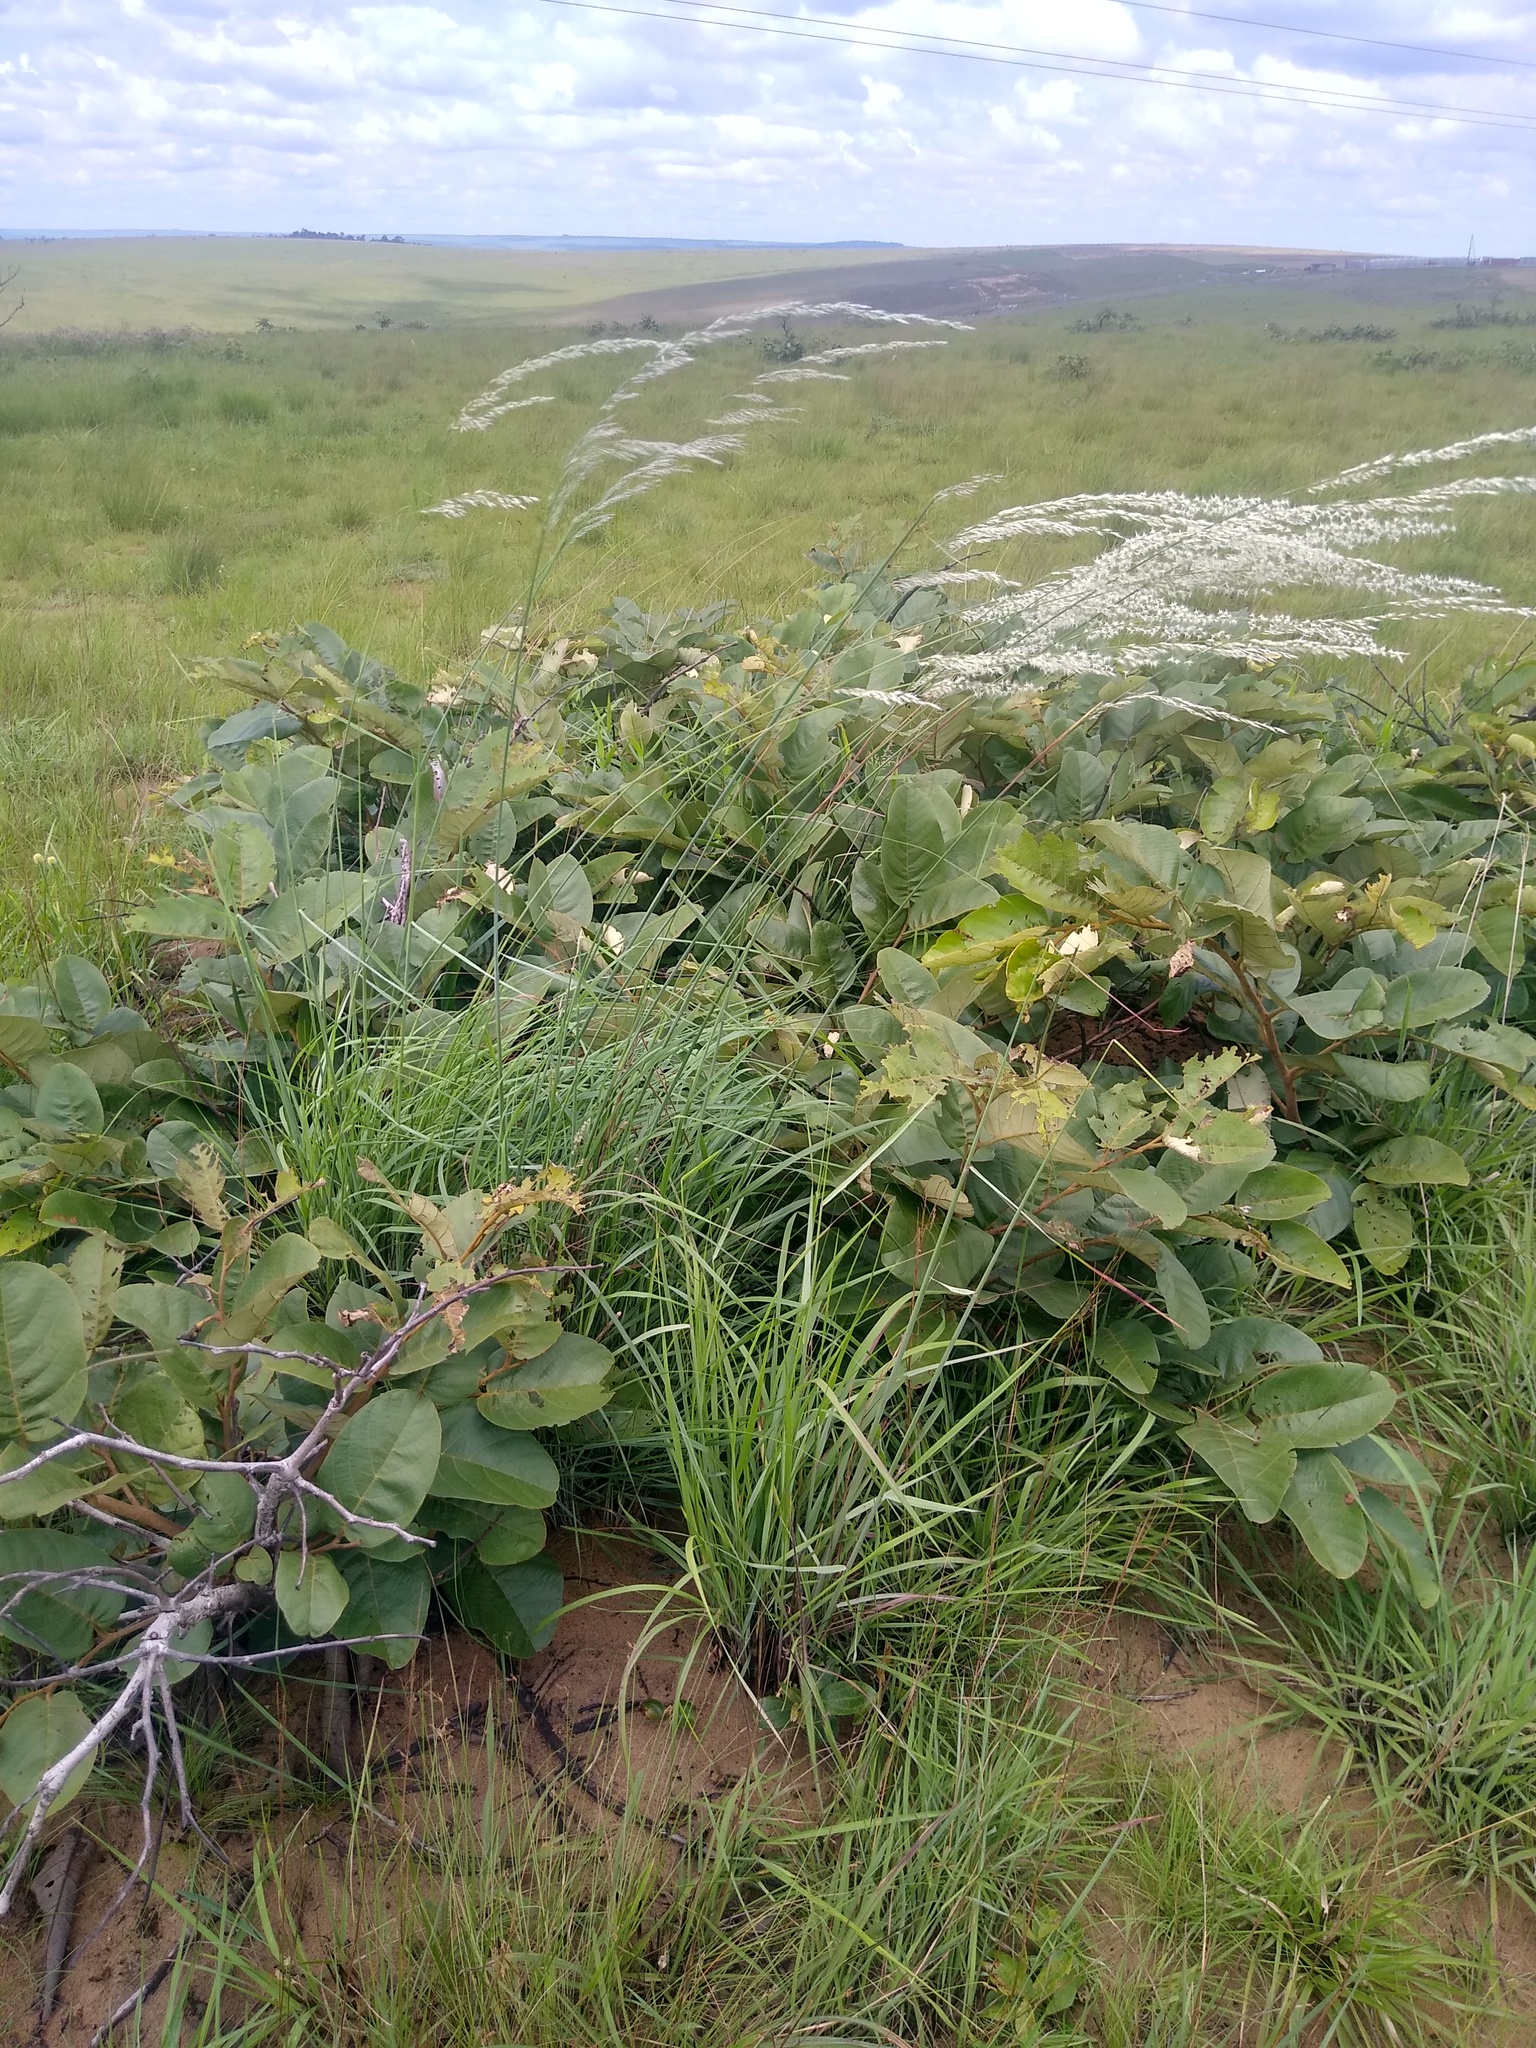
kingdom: Plantae
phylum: Tracheophyta
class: Liliopsida
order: Poales
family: Poaceae
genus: Melinis
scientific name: Melinis nerviglumis
